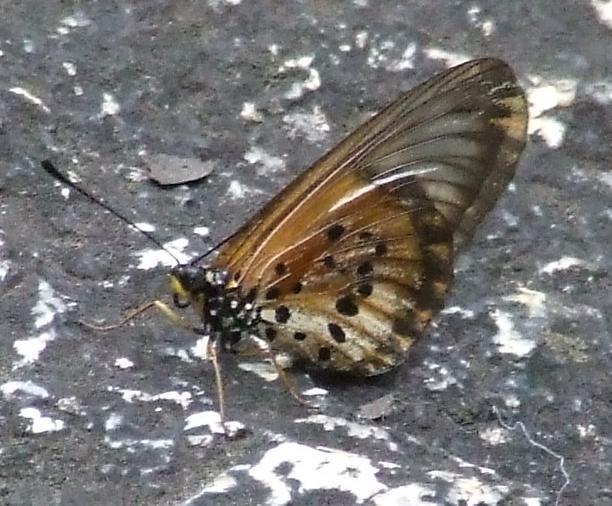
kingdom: Animalia
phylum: Arthropoda
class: Insecta
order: Lepidoptera
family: Nymphalidae
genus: Acraea
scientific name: Acraea Telchinia burni
